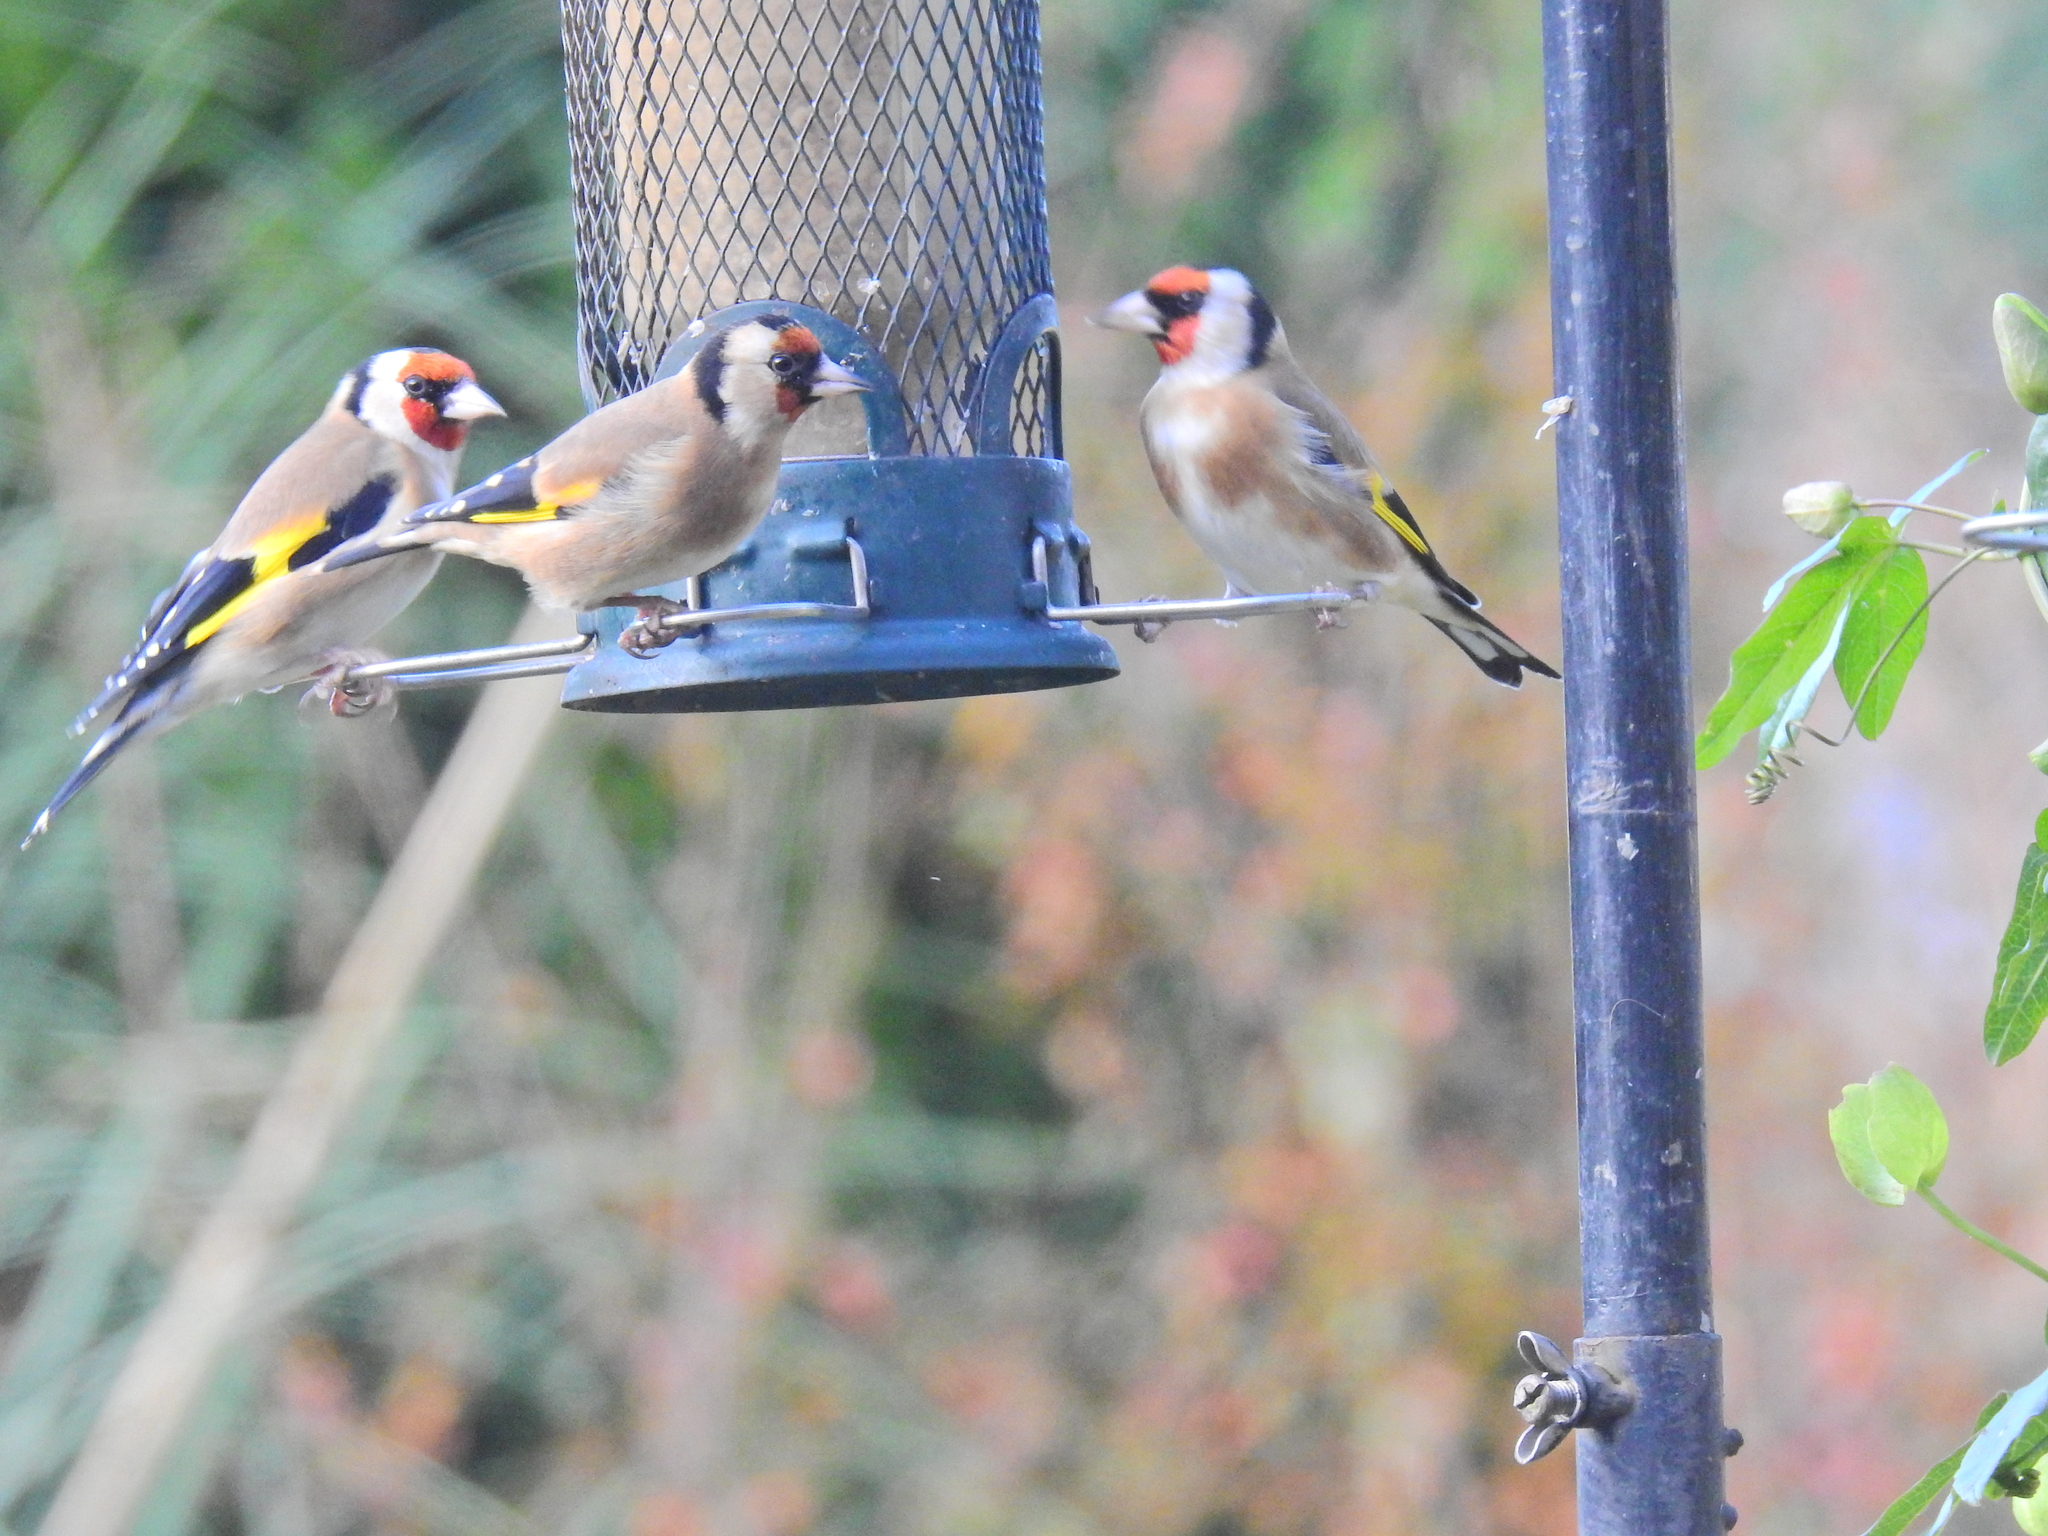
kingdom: Animalia
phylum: Chordata
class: Aves
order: Passeriformes
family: Fringillidae
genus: Carduelis
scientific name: Carduelis carduelis
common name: European goldfinch
